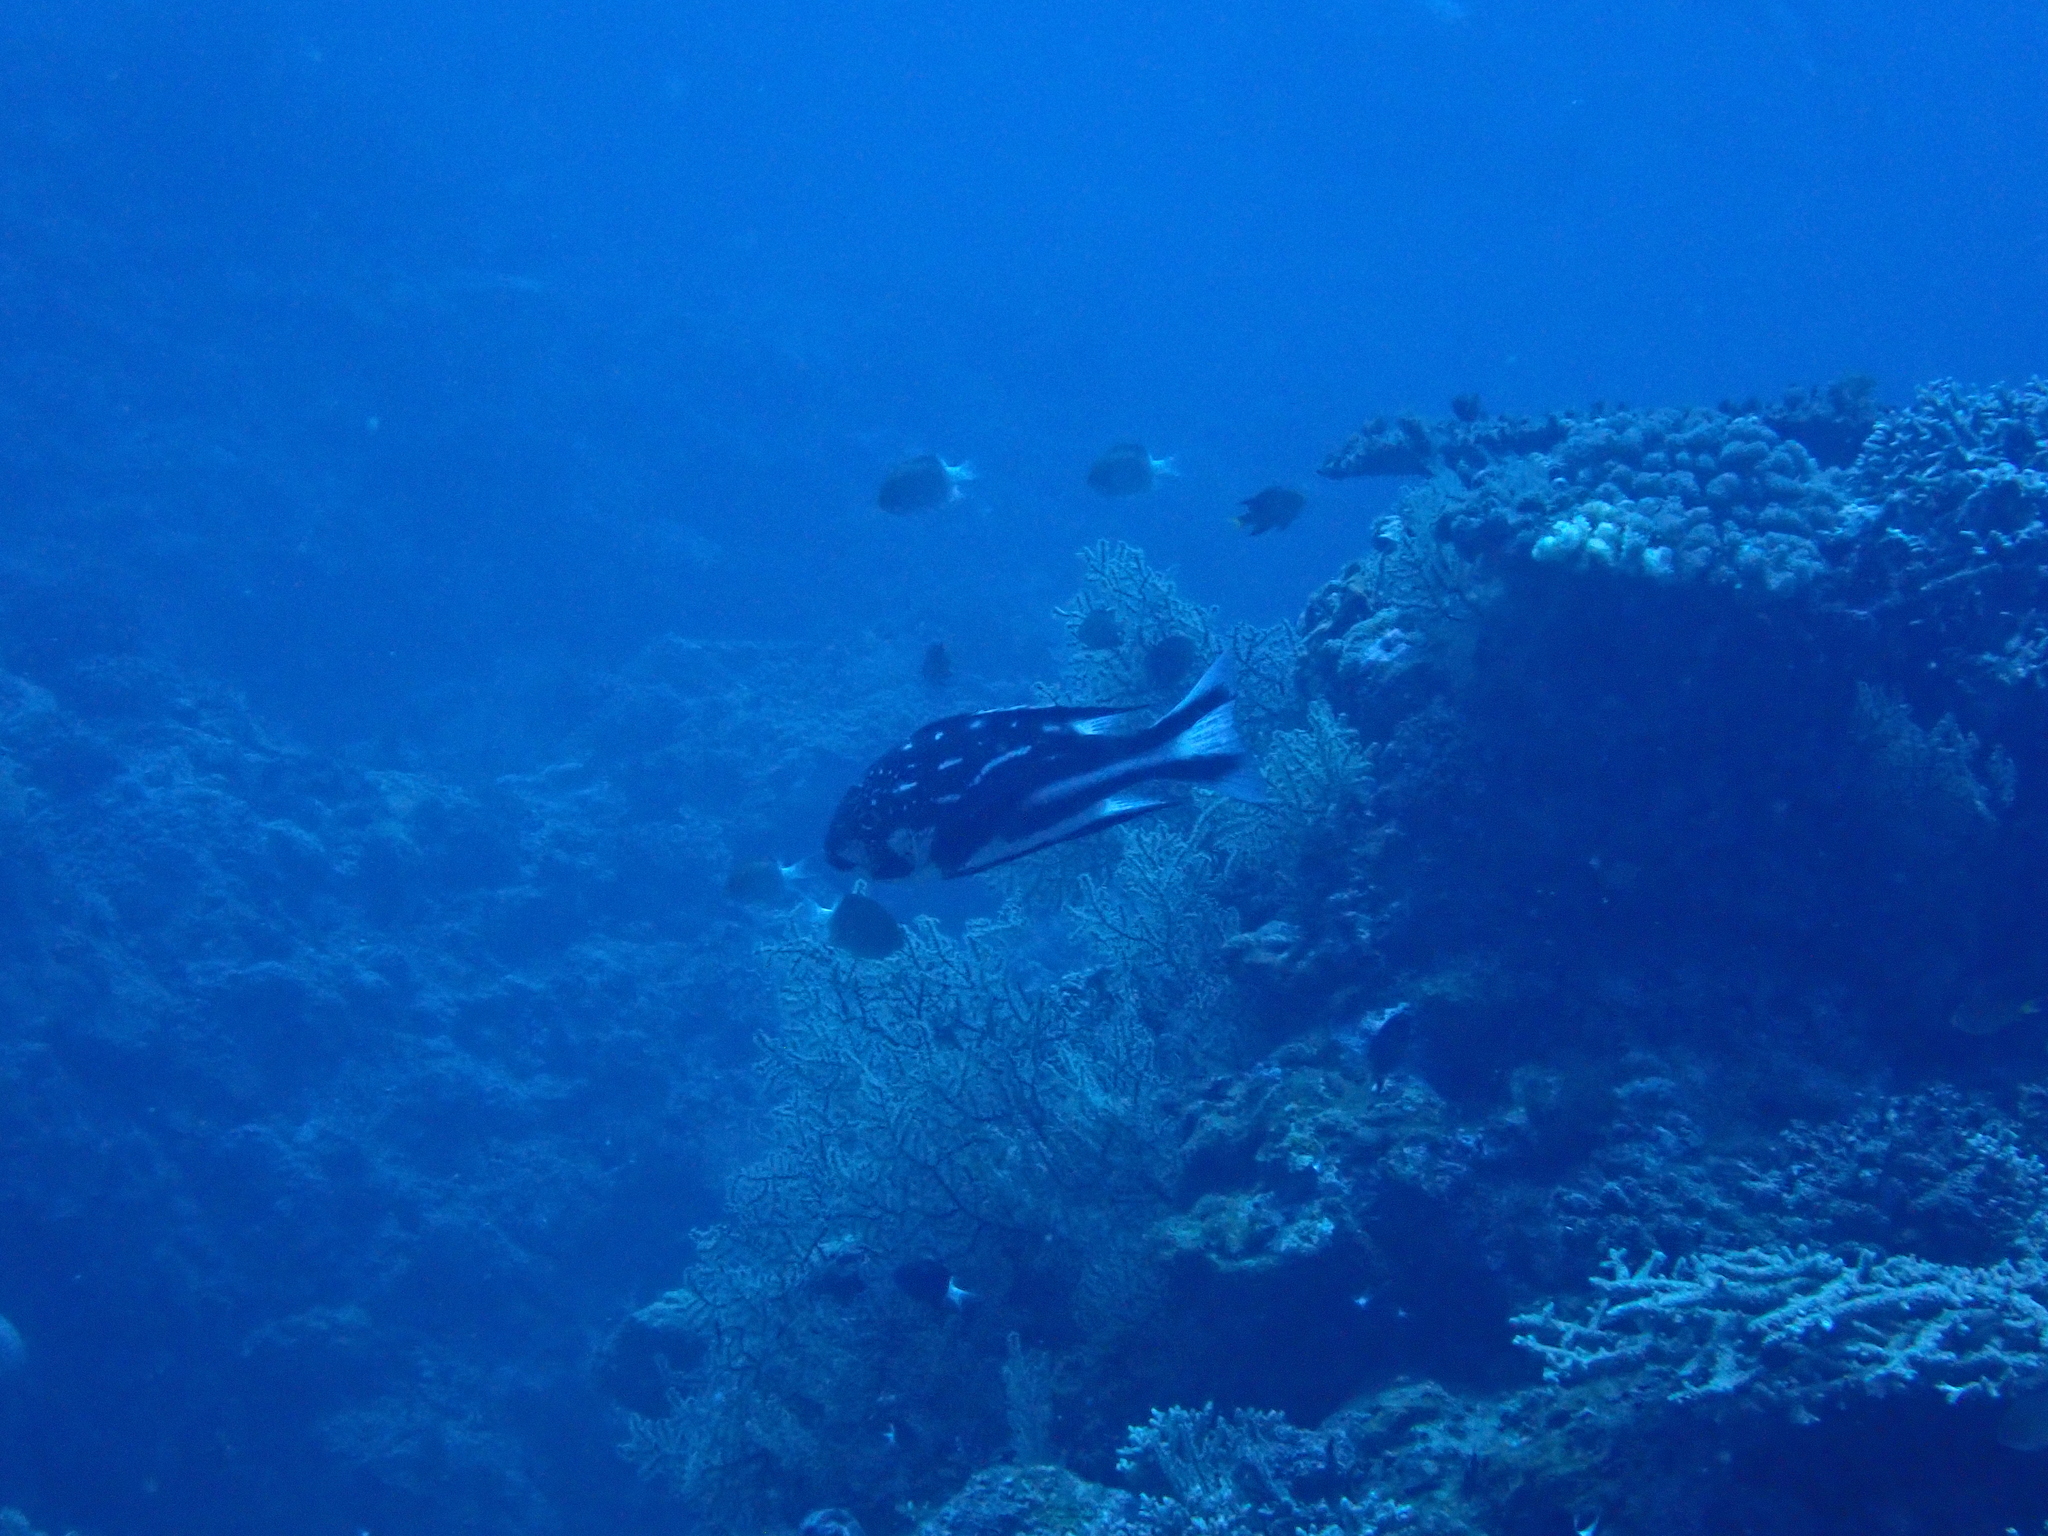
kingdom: Animalia
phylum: Chordata
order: Perciformes
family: Lutjanidae
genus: Macolor
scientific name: Macolor macularis
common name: Midnight snapper
